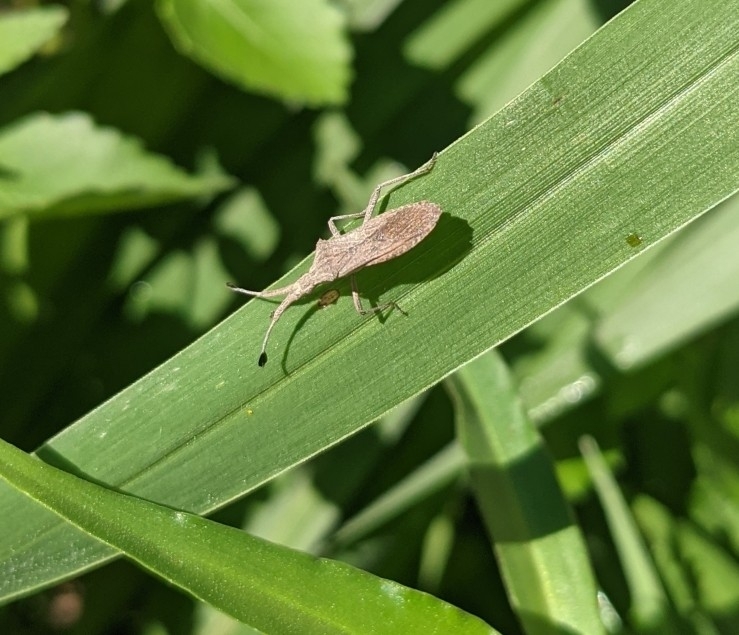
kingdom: Animalia
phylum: Arthropoda
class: Insecta
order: Hemiptera
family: Coreidae
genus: Chariesterus
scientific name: Chariesterus antennator
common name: Flat horned coreid
